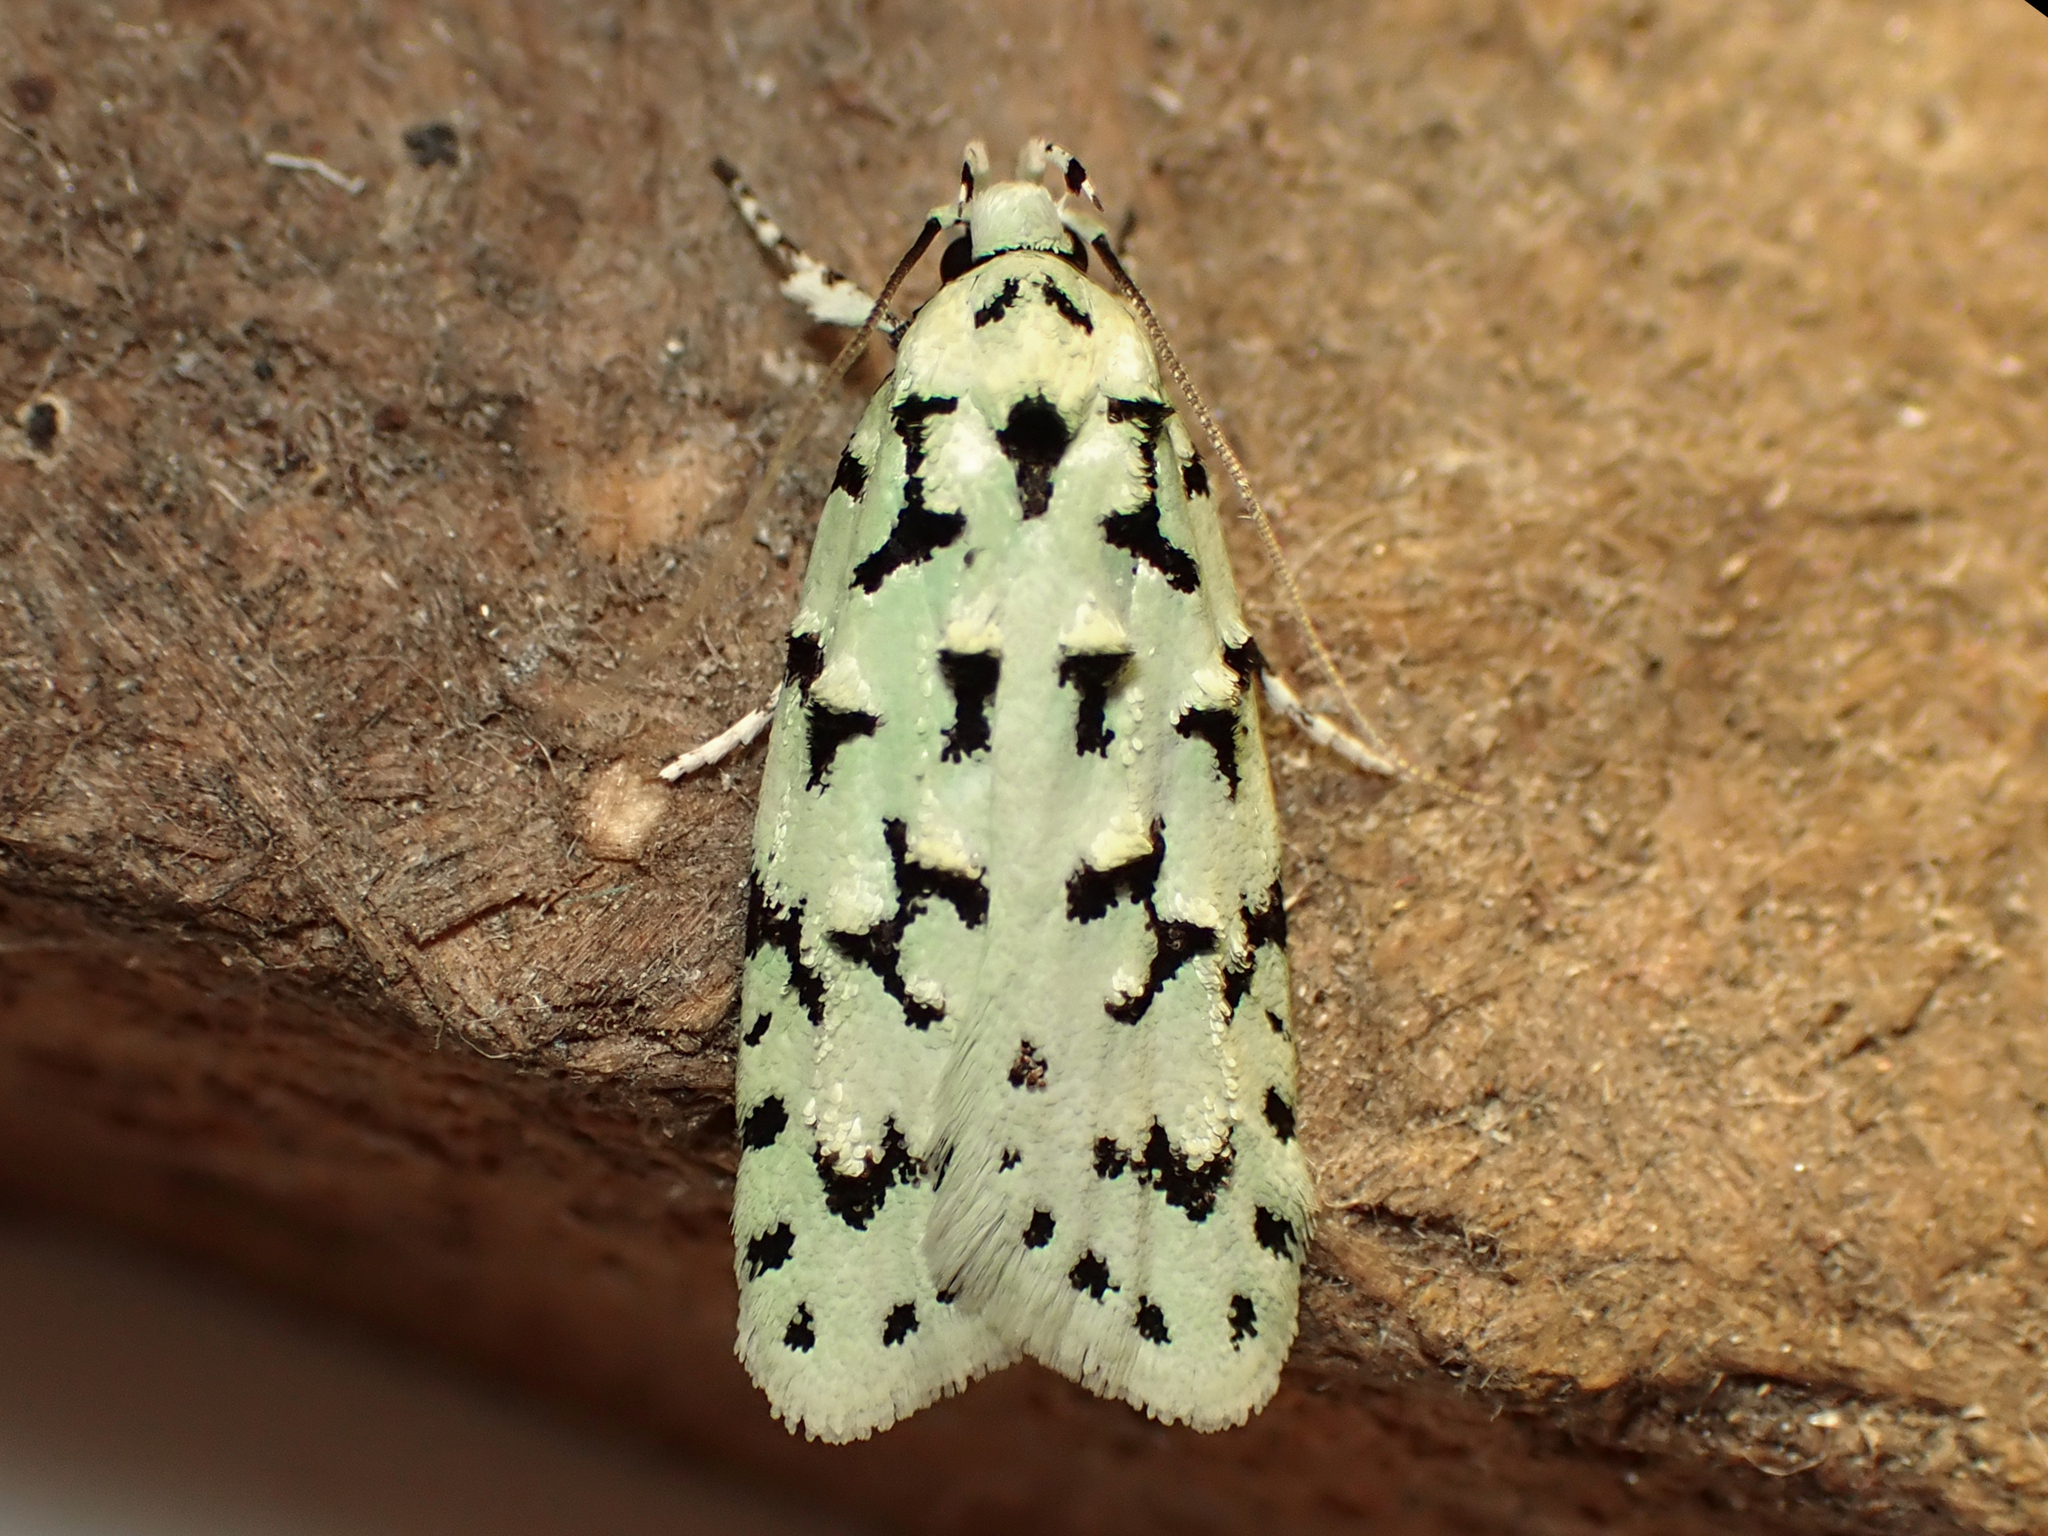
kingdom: Animalia
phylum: Arthropoda
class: Insecta
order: Lepidoptera
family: Oecophoridae
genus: Izatha
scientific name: Izatha huttoni
